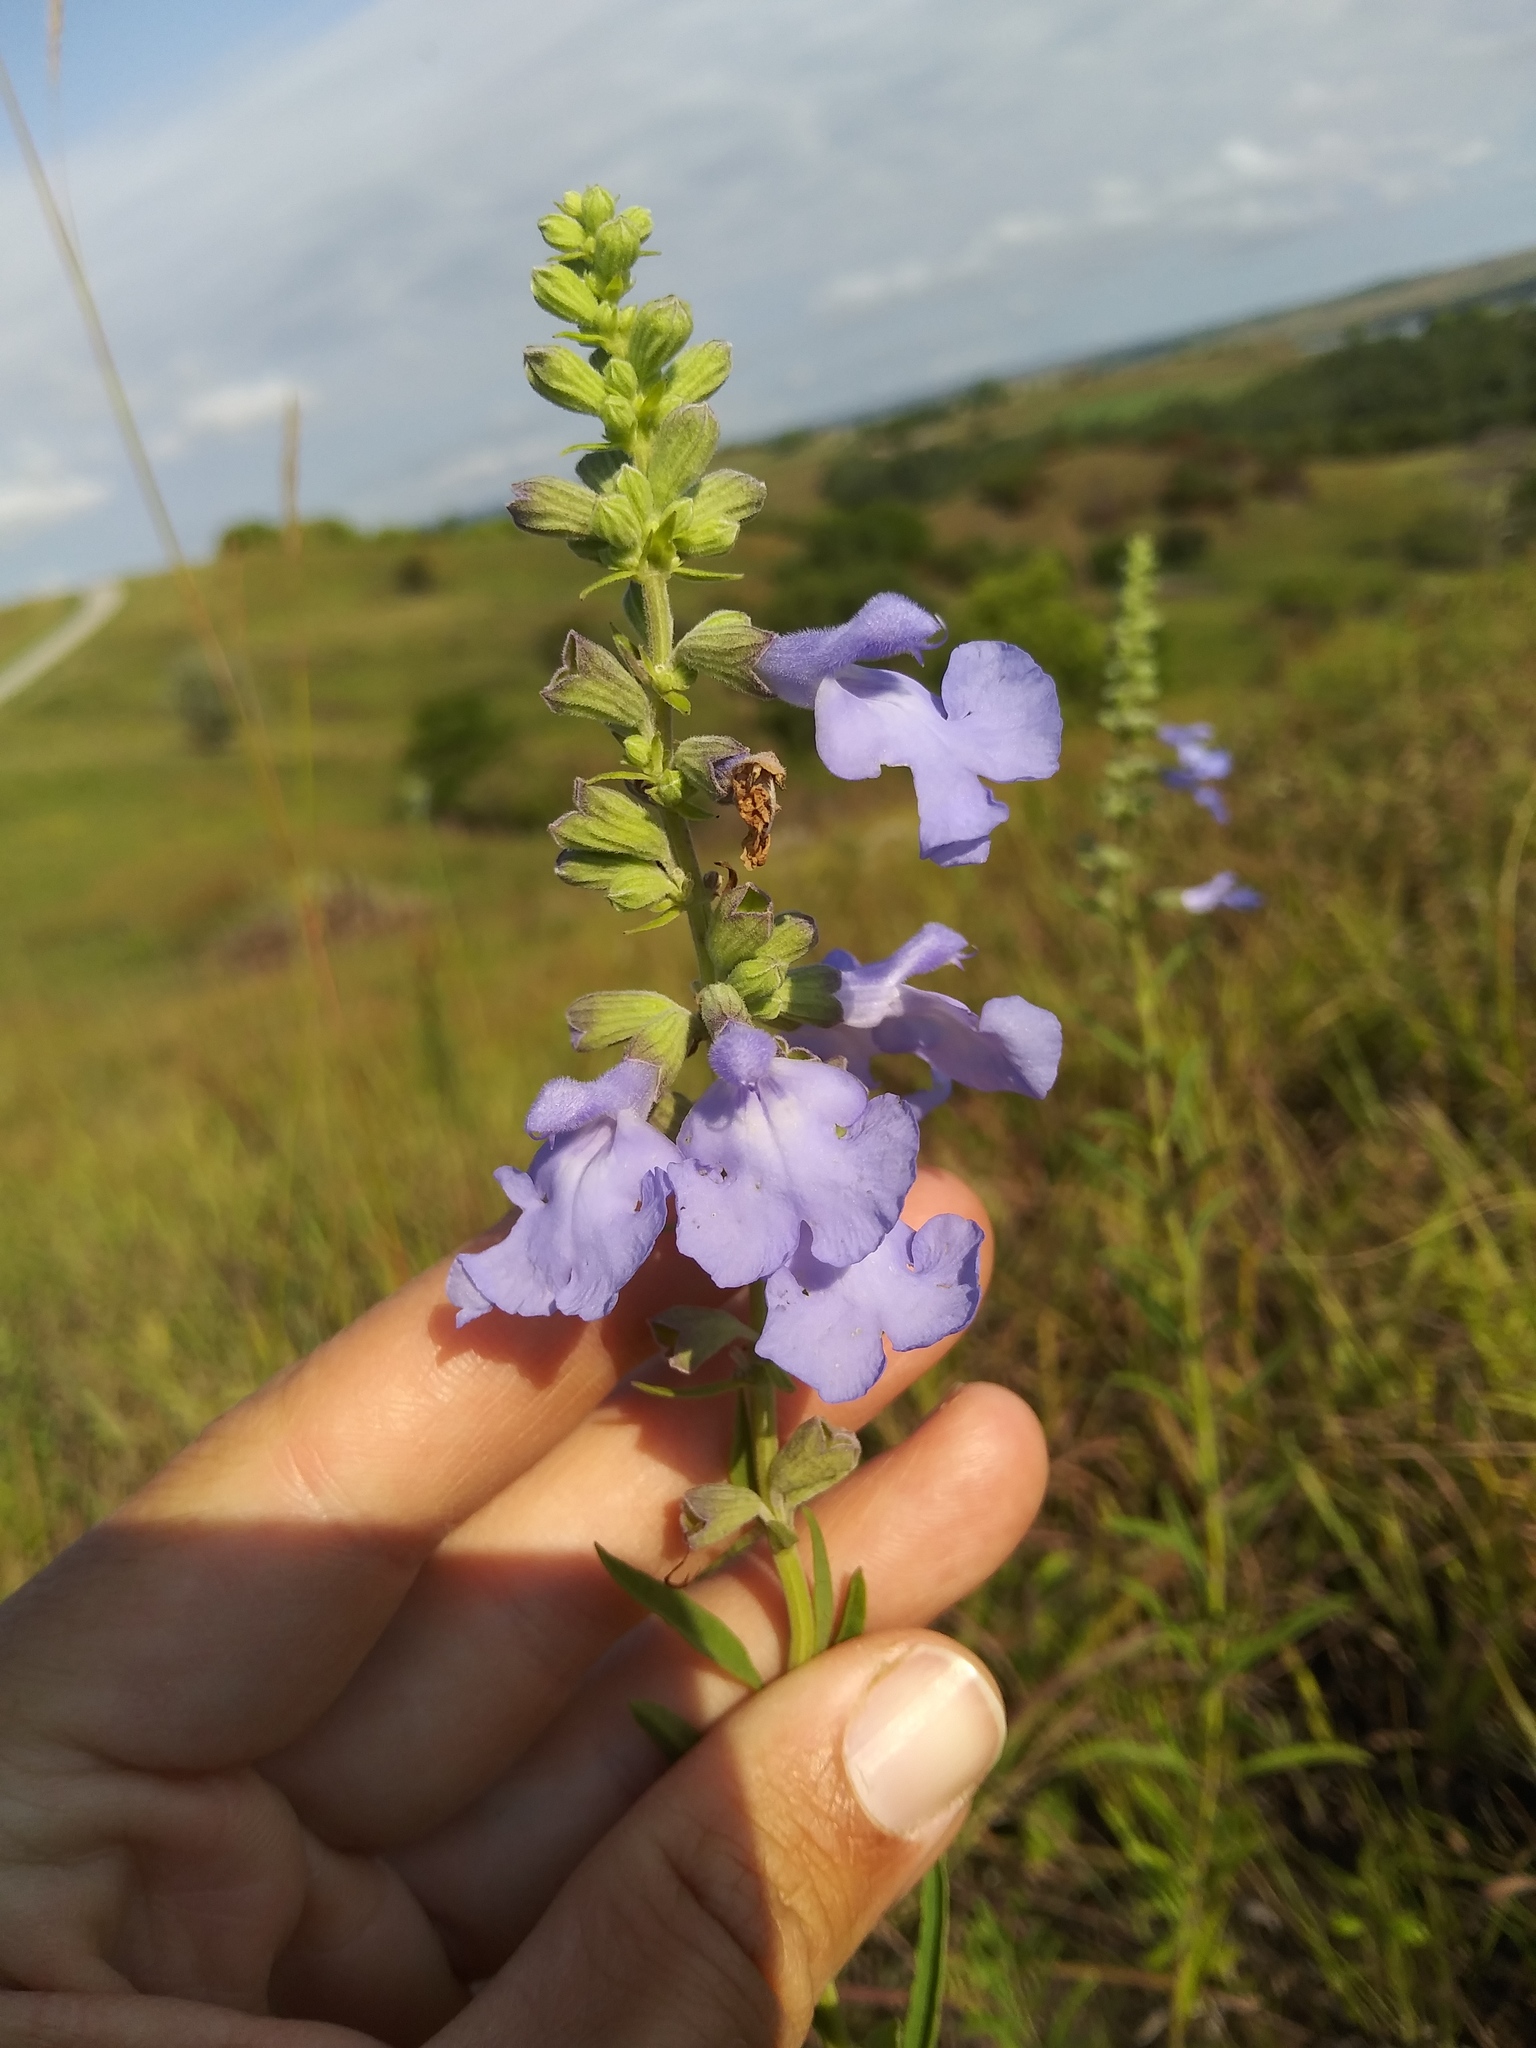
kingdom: Plantae
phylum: Tracheophyta
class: Magnoliopsida
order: Lamiales
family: Lamiaceae
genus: Salvia
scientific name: Salvia azurea
